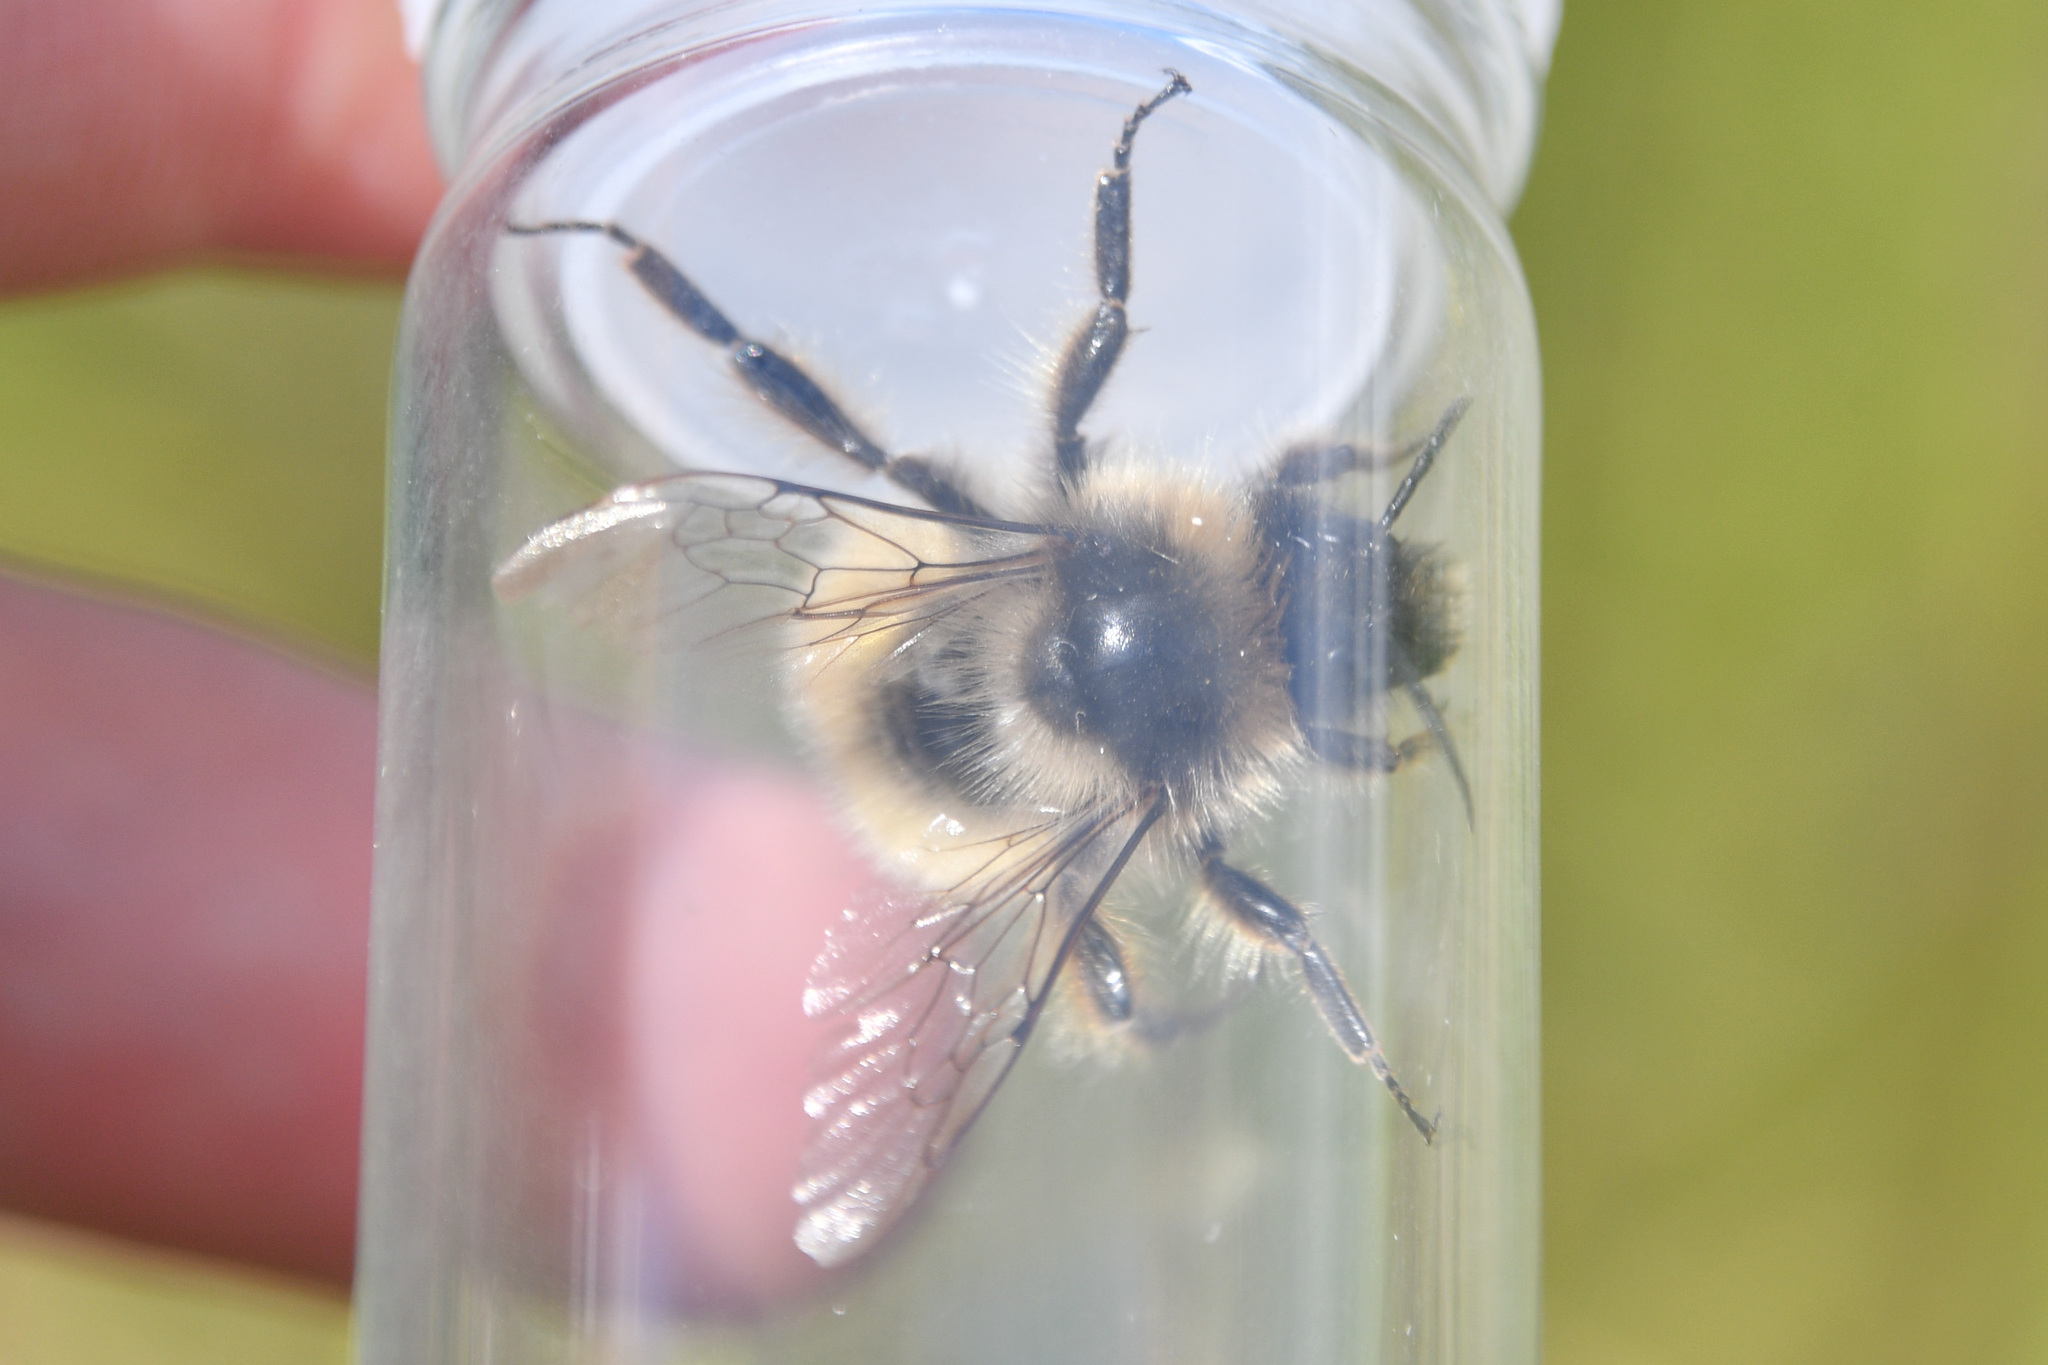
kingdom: Animalia
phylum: Arthropoda
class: Insecta
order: Hymenoptera
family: Apidae
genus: Bombus
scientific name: Bombus kirbiellus
